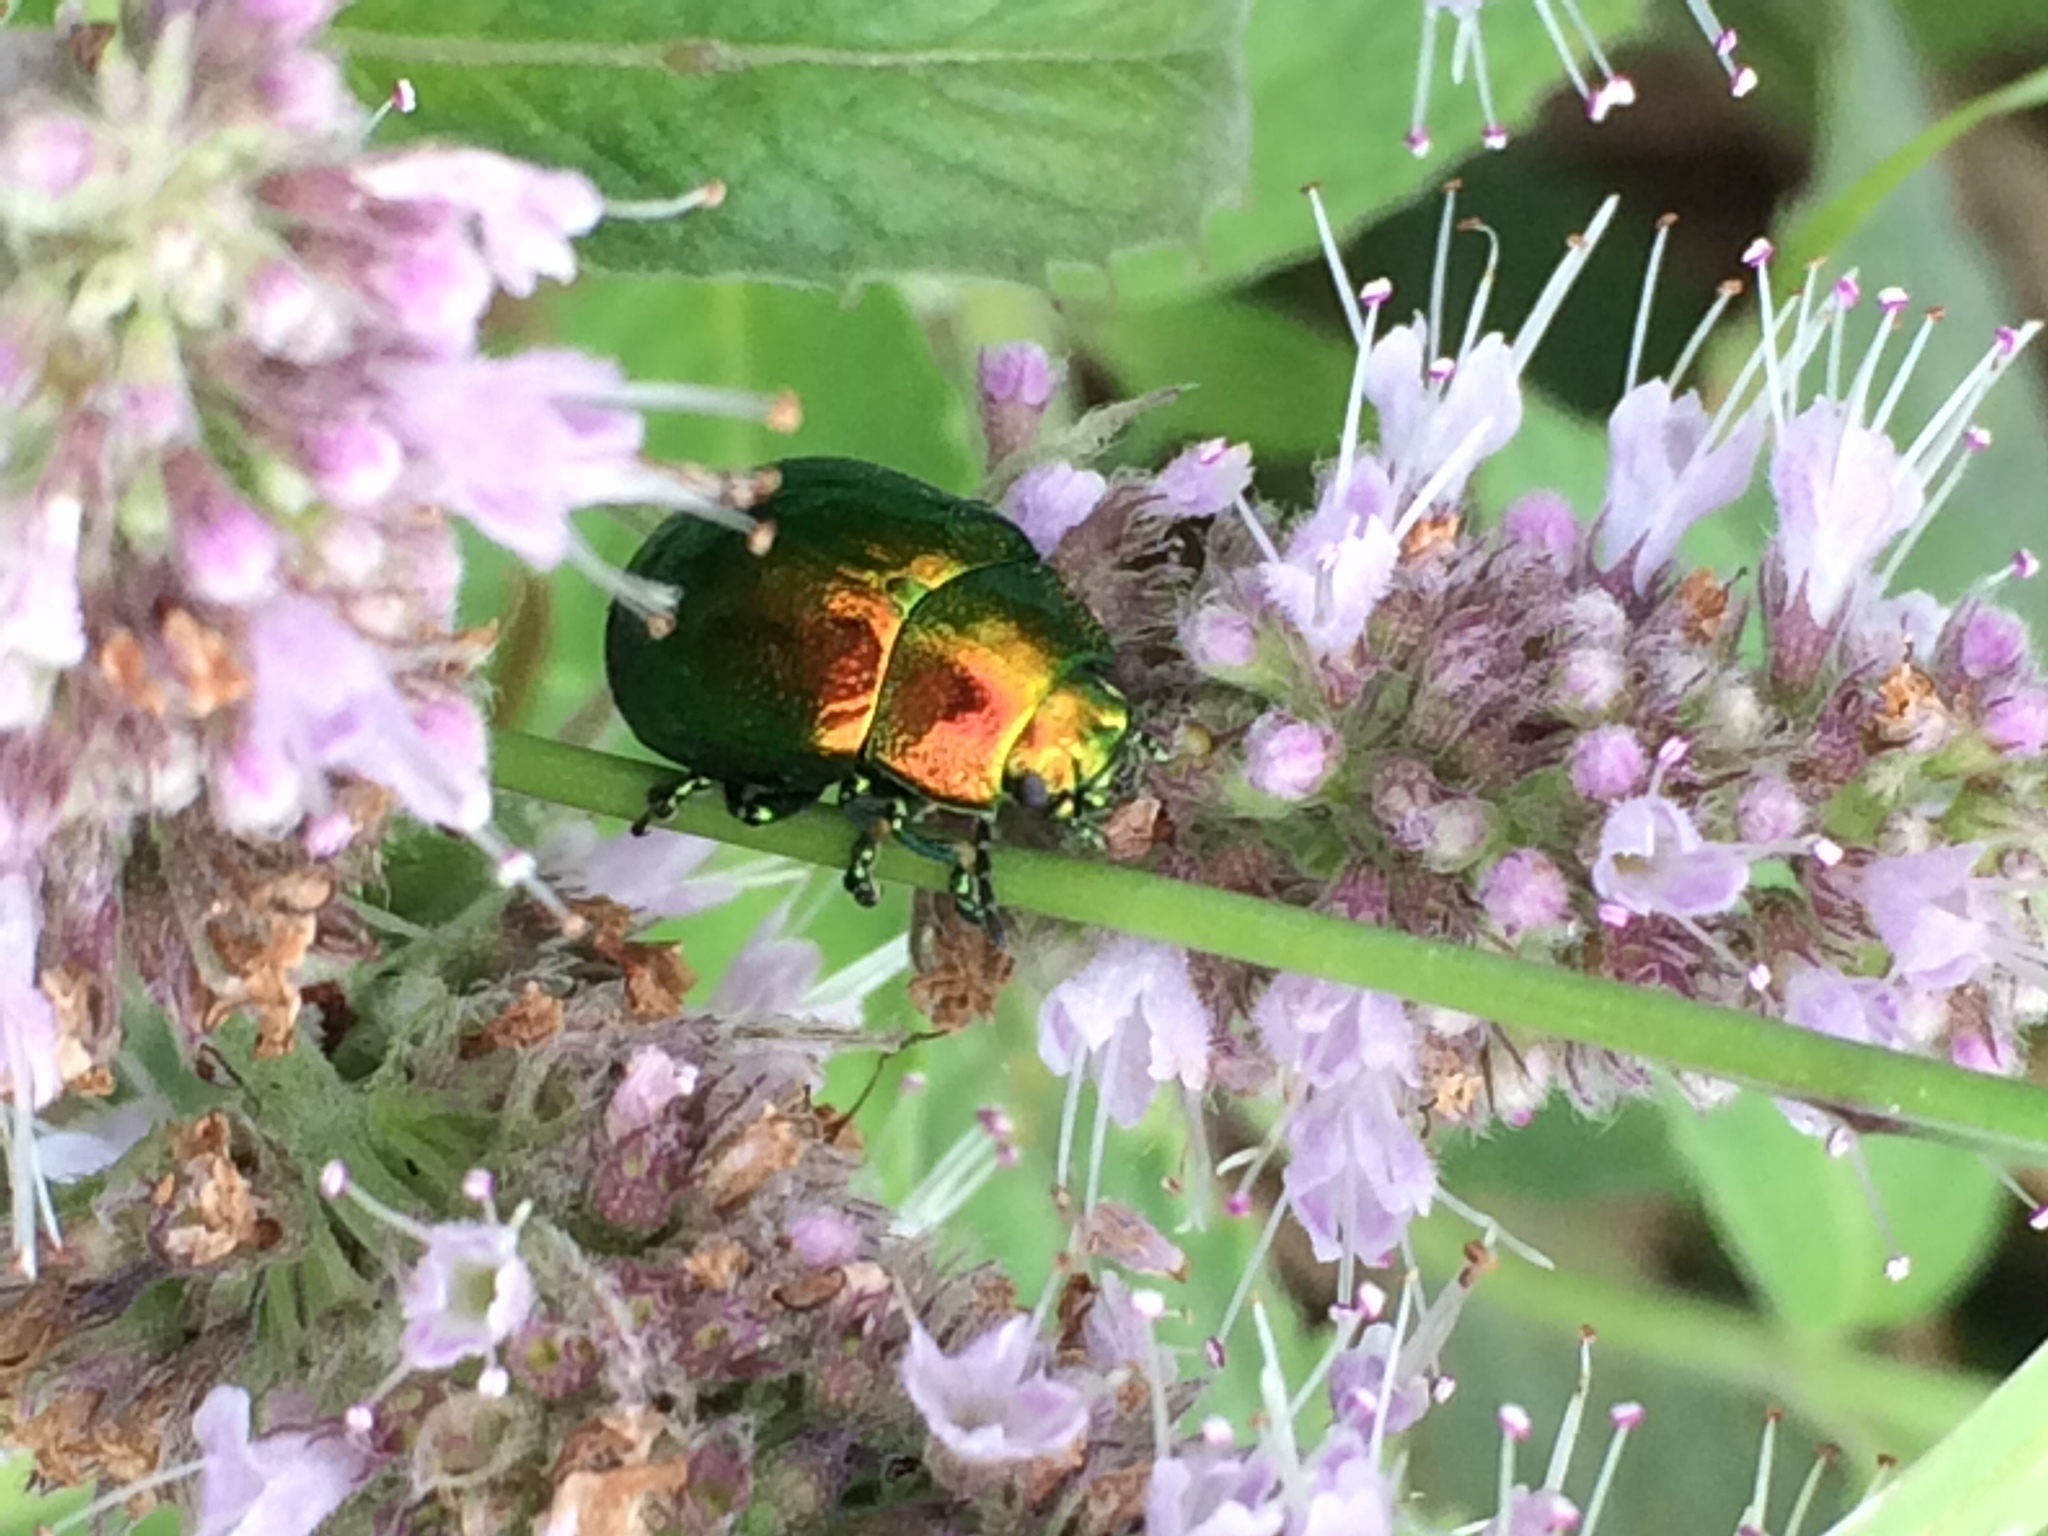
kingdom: Animalia
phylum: Arthropoda
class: Insecta
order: Coleoptera
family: Chrysomelidae
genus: Chrysolina
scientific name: Chrysolina herbacea
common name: Mint leaf beatle
